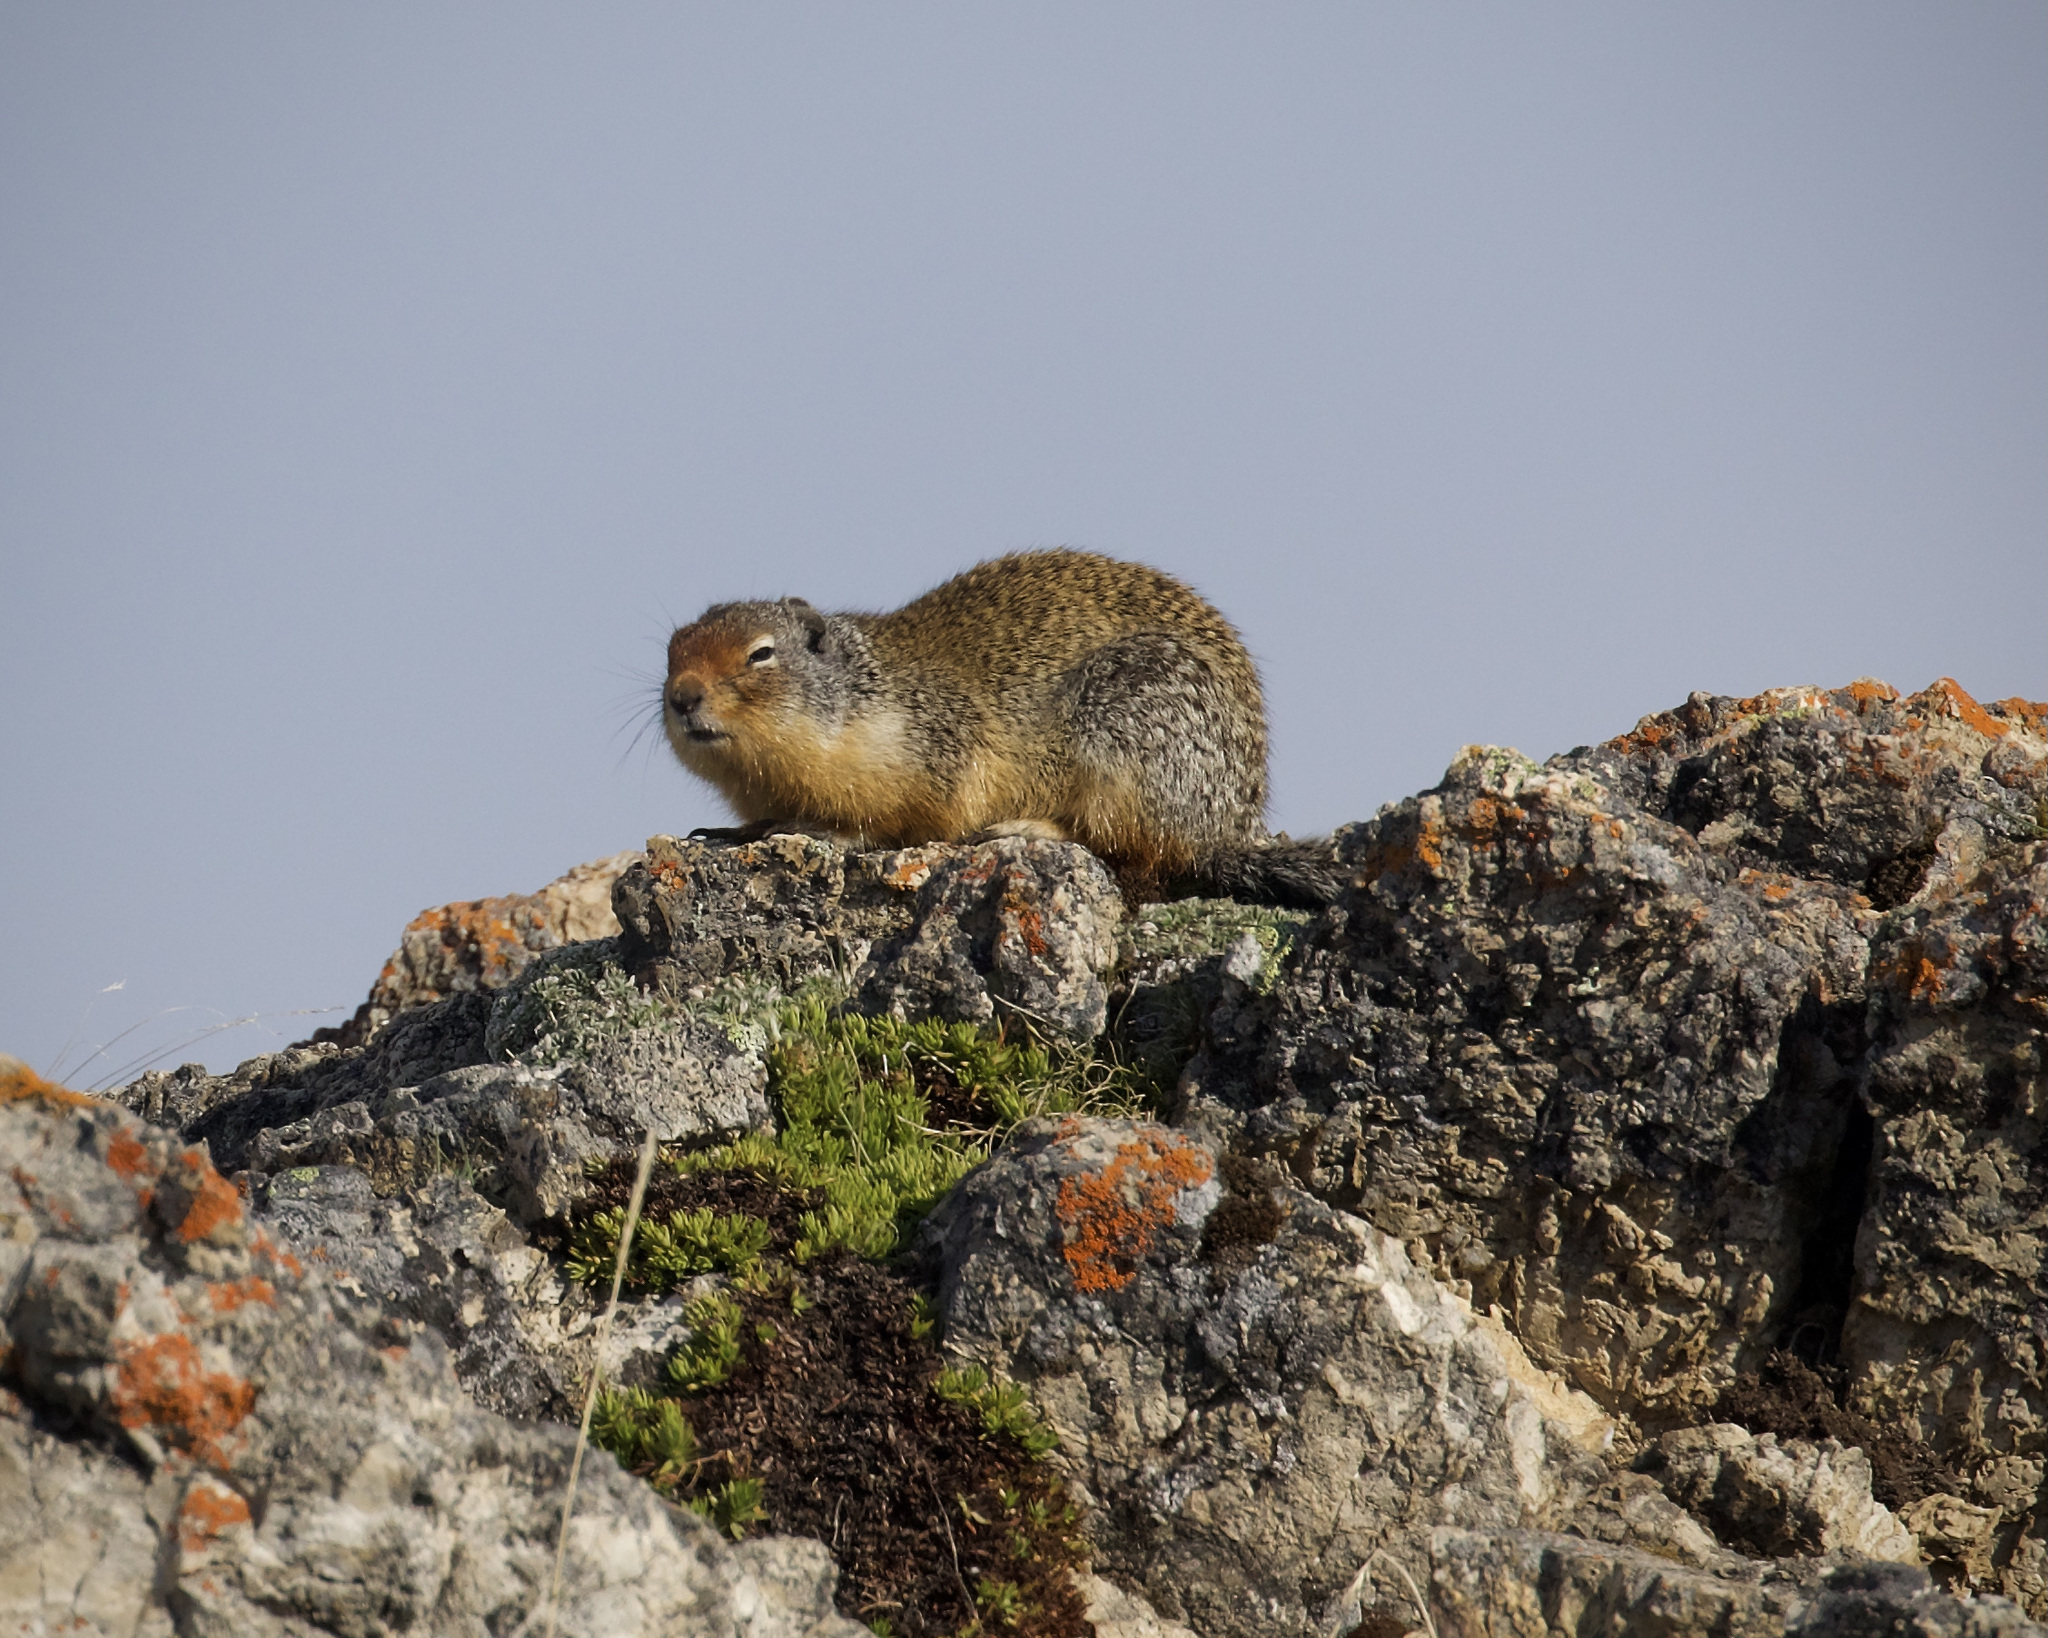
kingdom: Animalia
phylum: Chordata
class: Mammalia
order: Rodentia
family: Sciuridae
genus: Urocitellus
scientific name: Urocitellus columbianus
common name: Columbian ground squirrel
